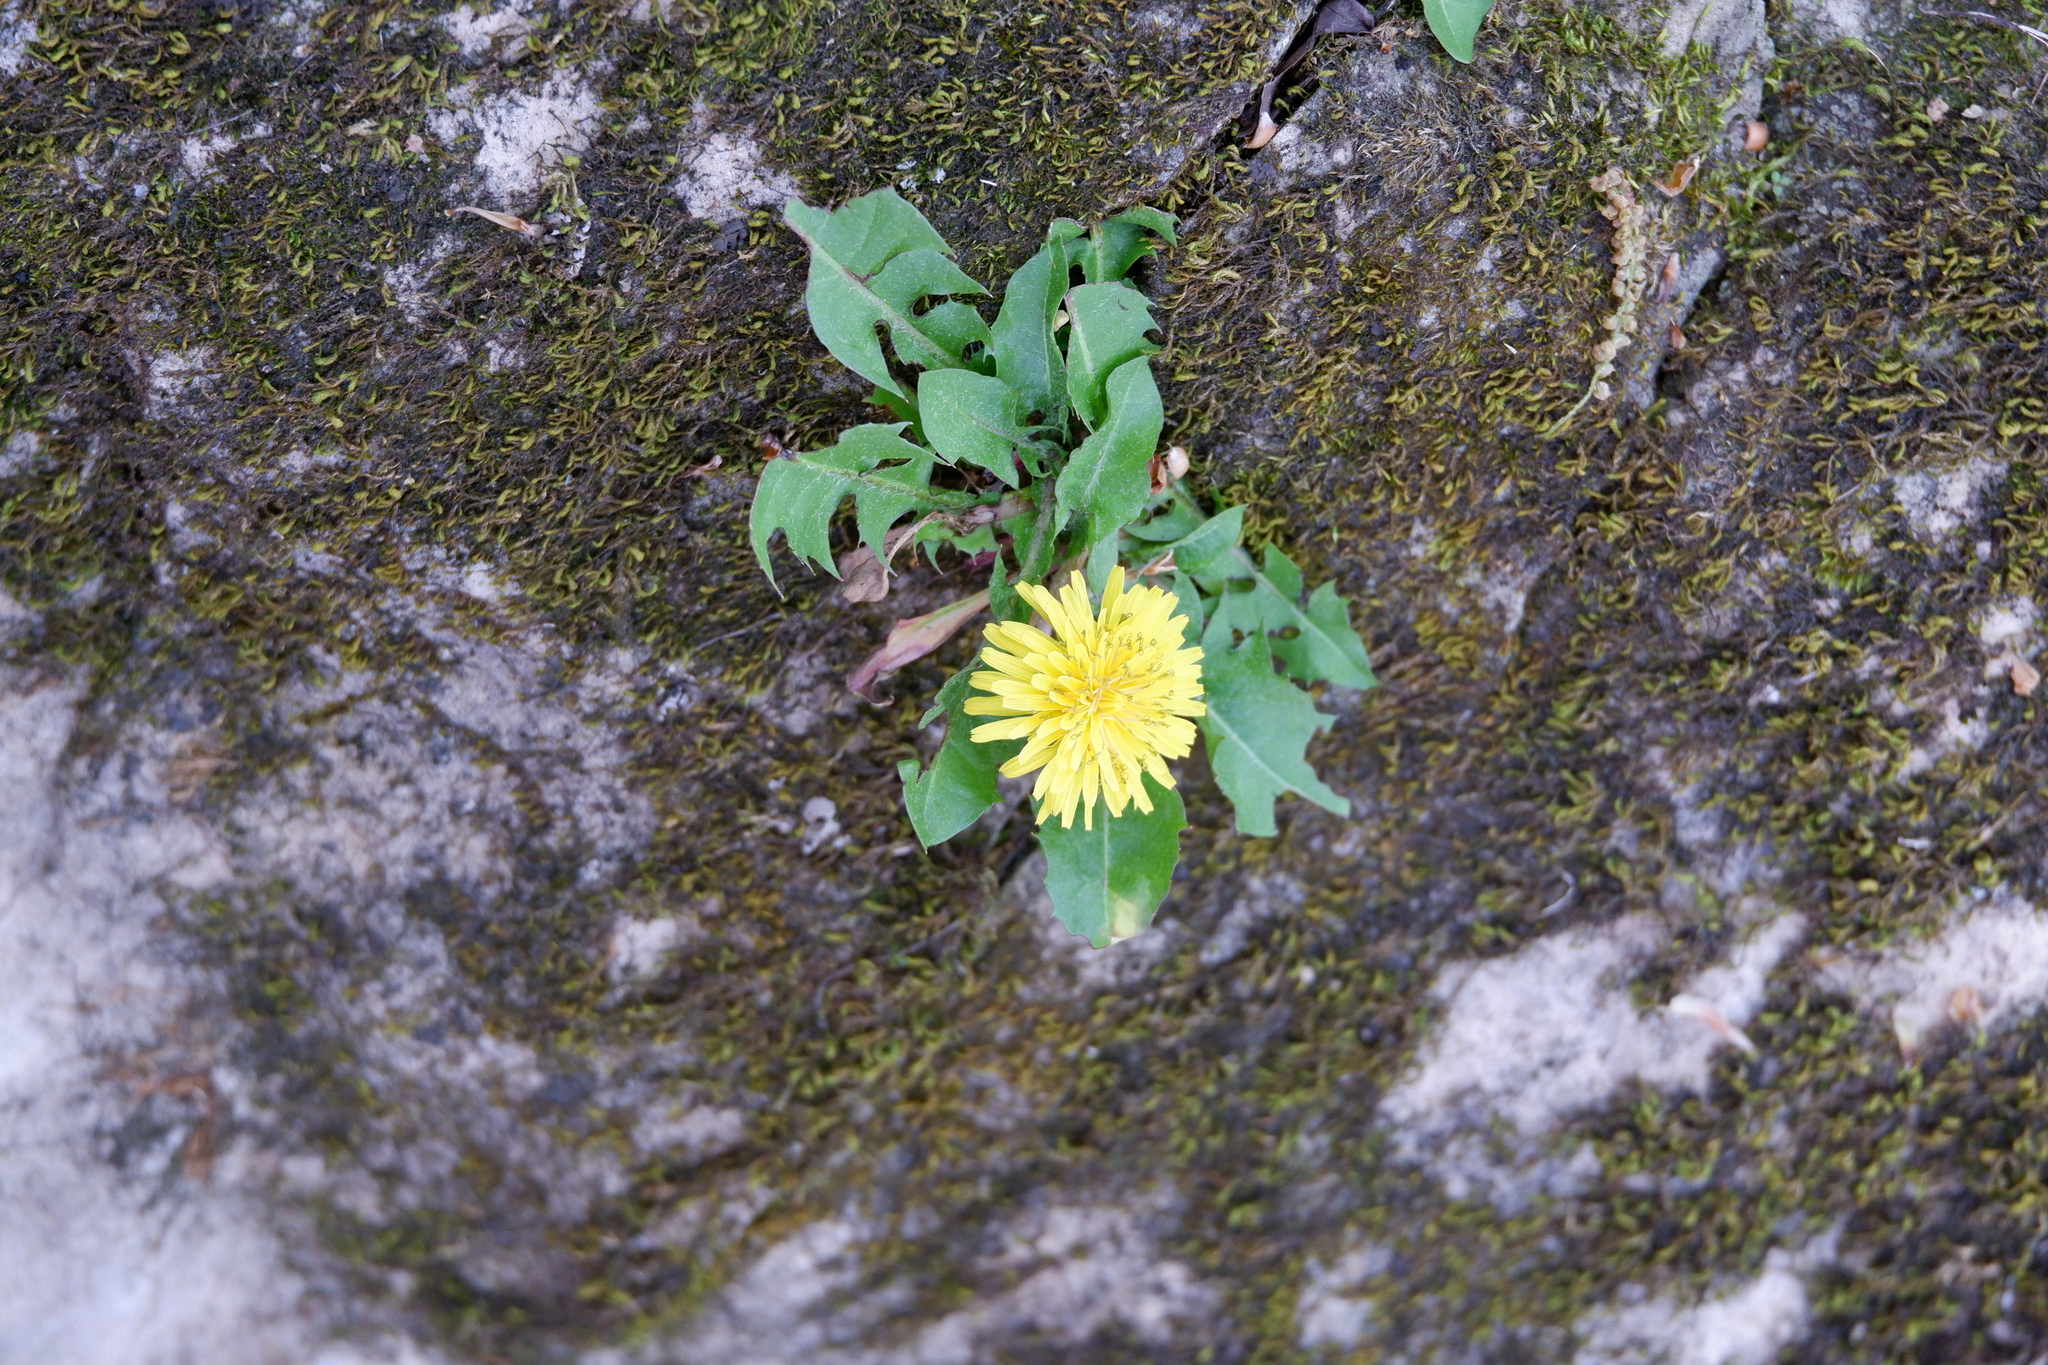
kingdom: Plantae
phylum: Tracheophyta
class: Magnoliopsida
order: Asterales
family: Asteraceae
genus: Taraxacum
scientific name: Taraxacum
